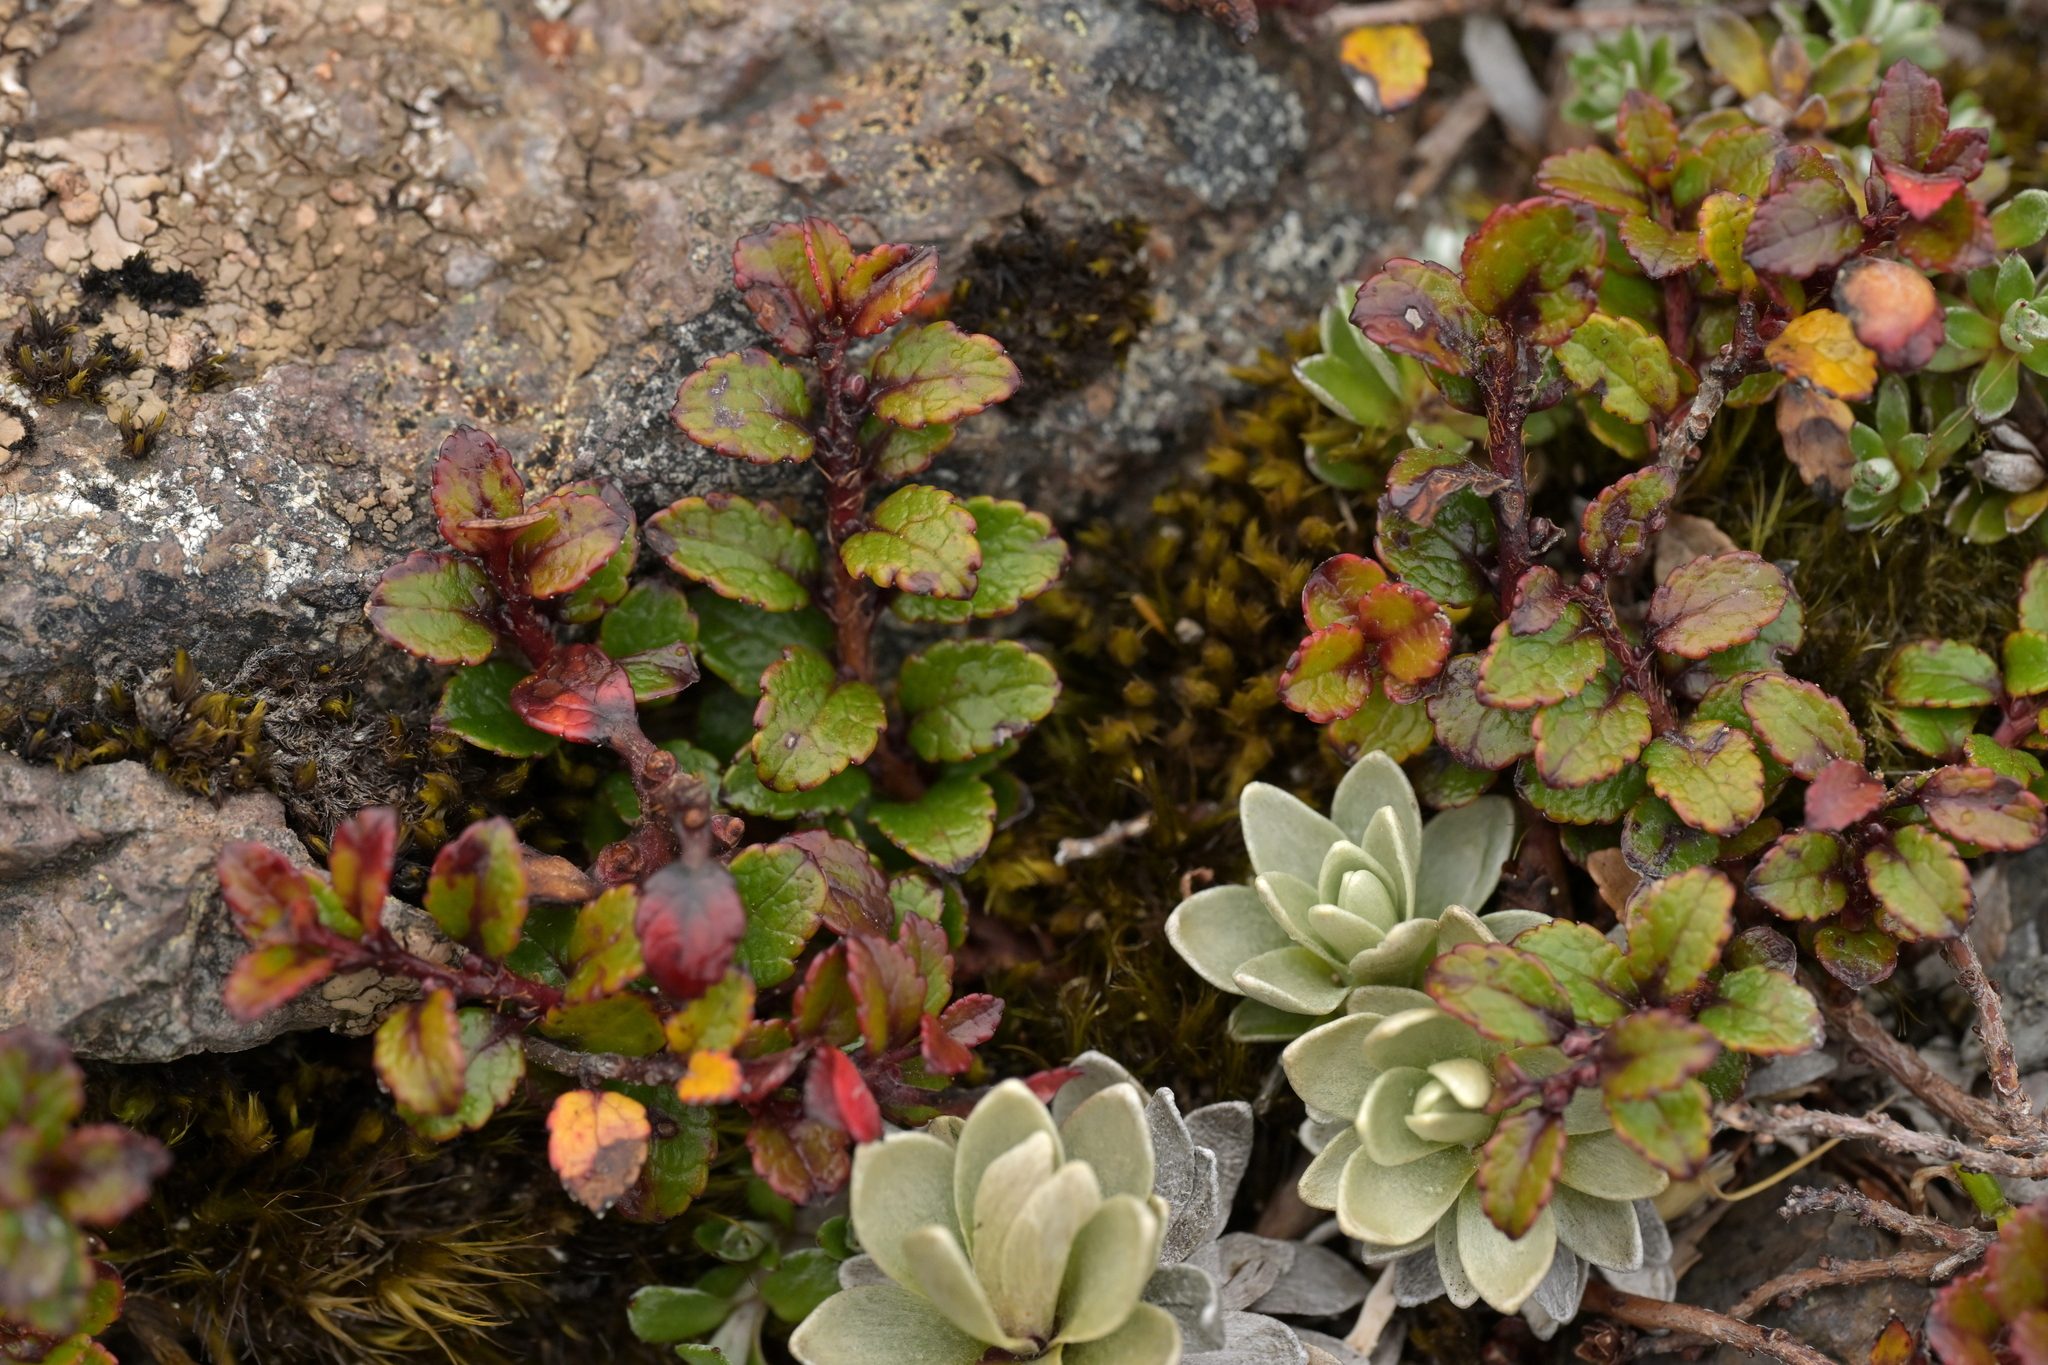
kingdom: Plantae
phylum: Tracheophyta
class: Magnoliopsida
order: Ericales
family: Ericaceae
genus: Gaultheria
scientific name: Gaultheria depressa
